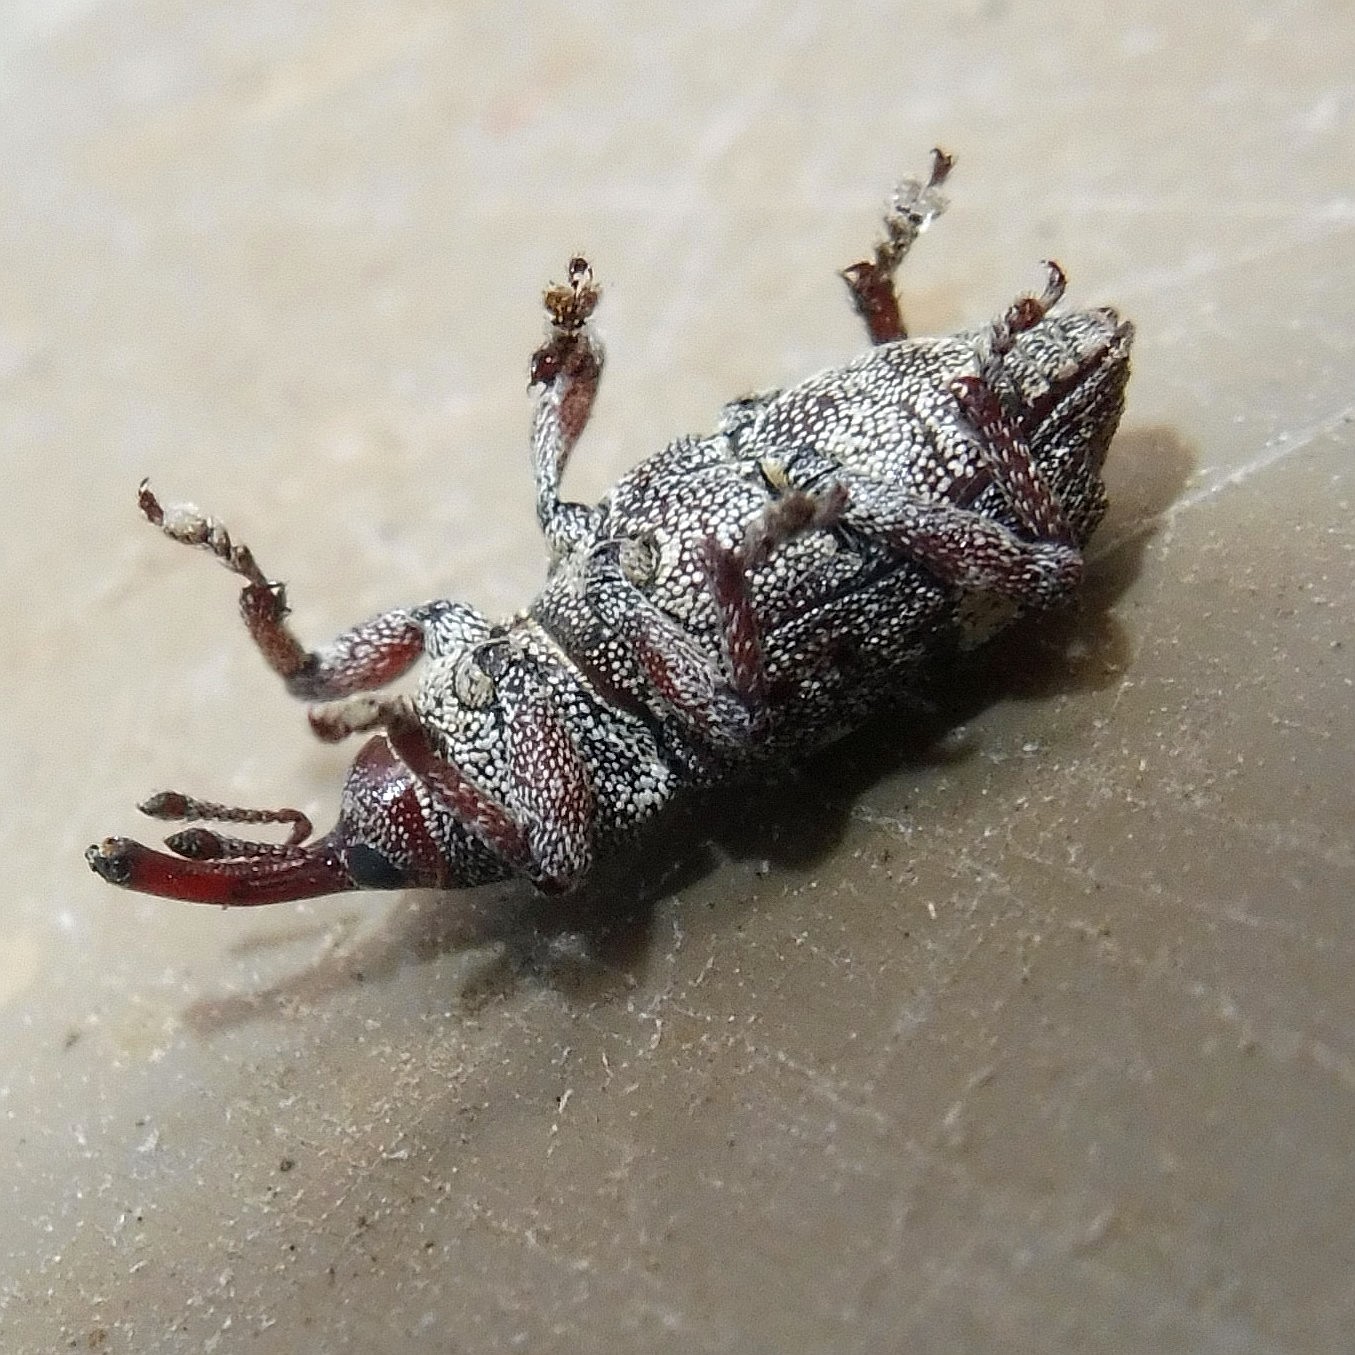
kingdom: Animalia
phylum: Arthropoda
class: Insecta
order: Coleoptera
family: Curculionidae
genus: Pissodes
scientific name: Pissodes castaneus
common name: Banded pine weevil
